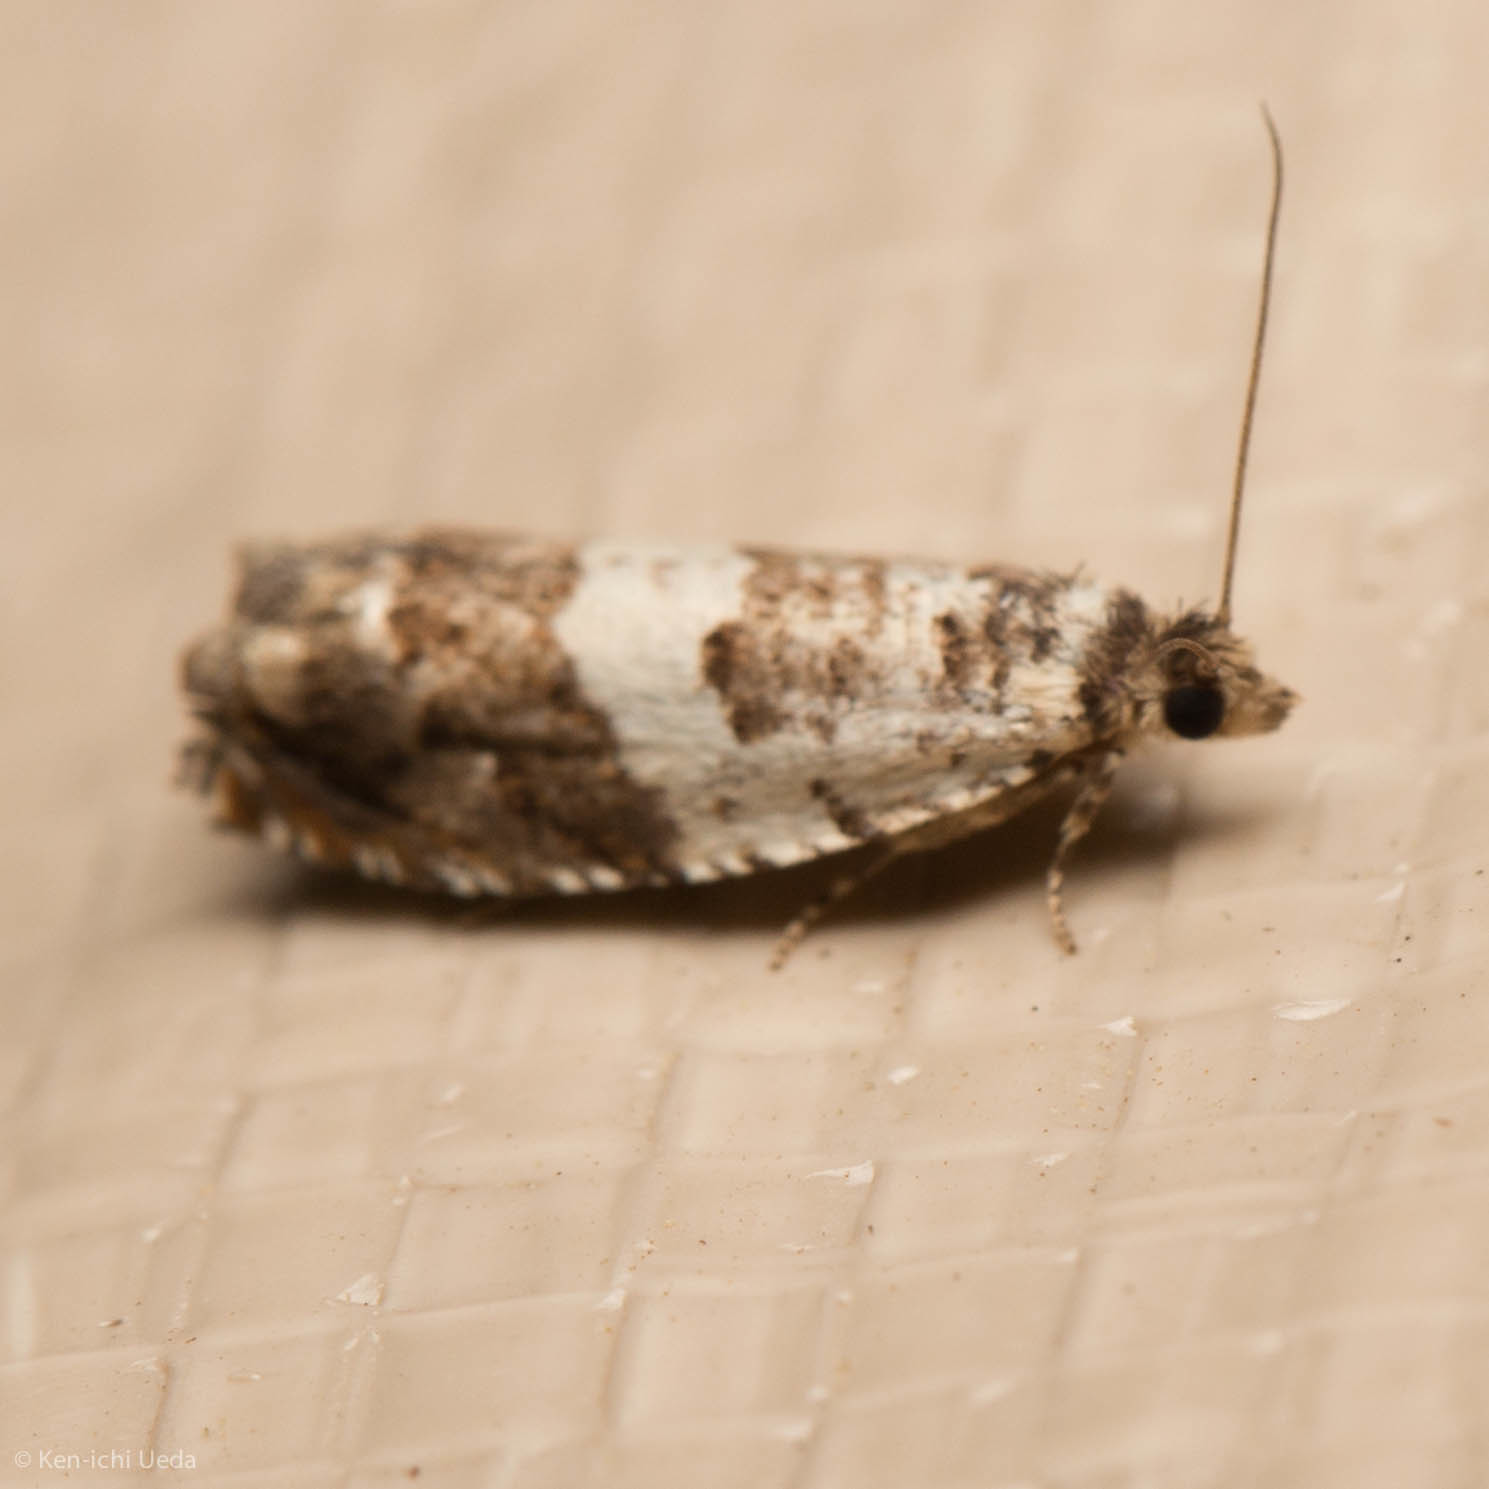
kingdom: Animalia
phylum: Arthropoda
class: Insecta
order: Lepidoptera
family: Tortricidae
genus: Epinotia
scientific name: Epinotia nigralbana
